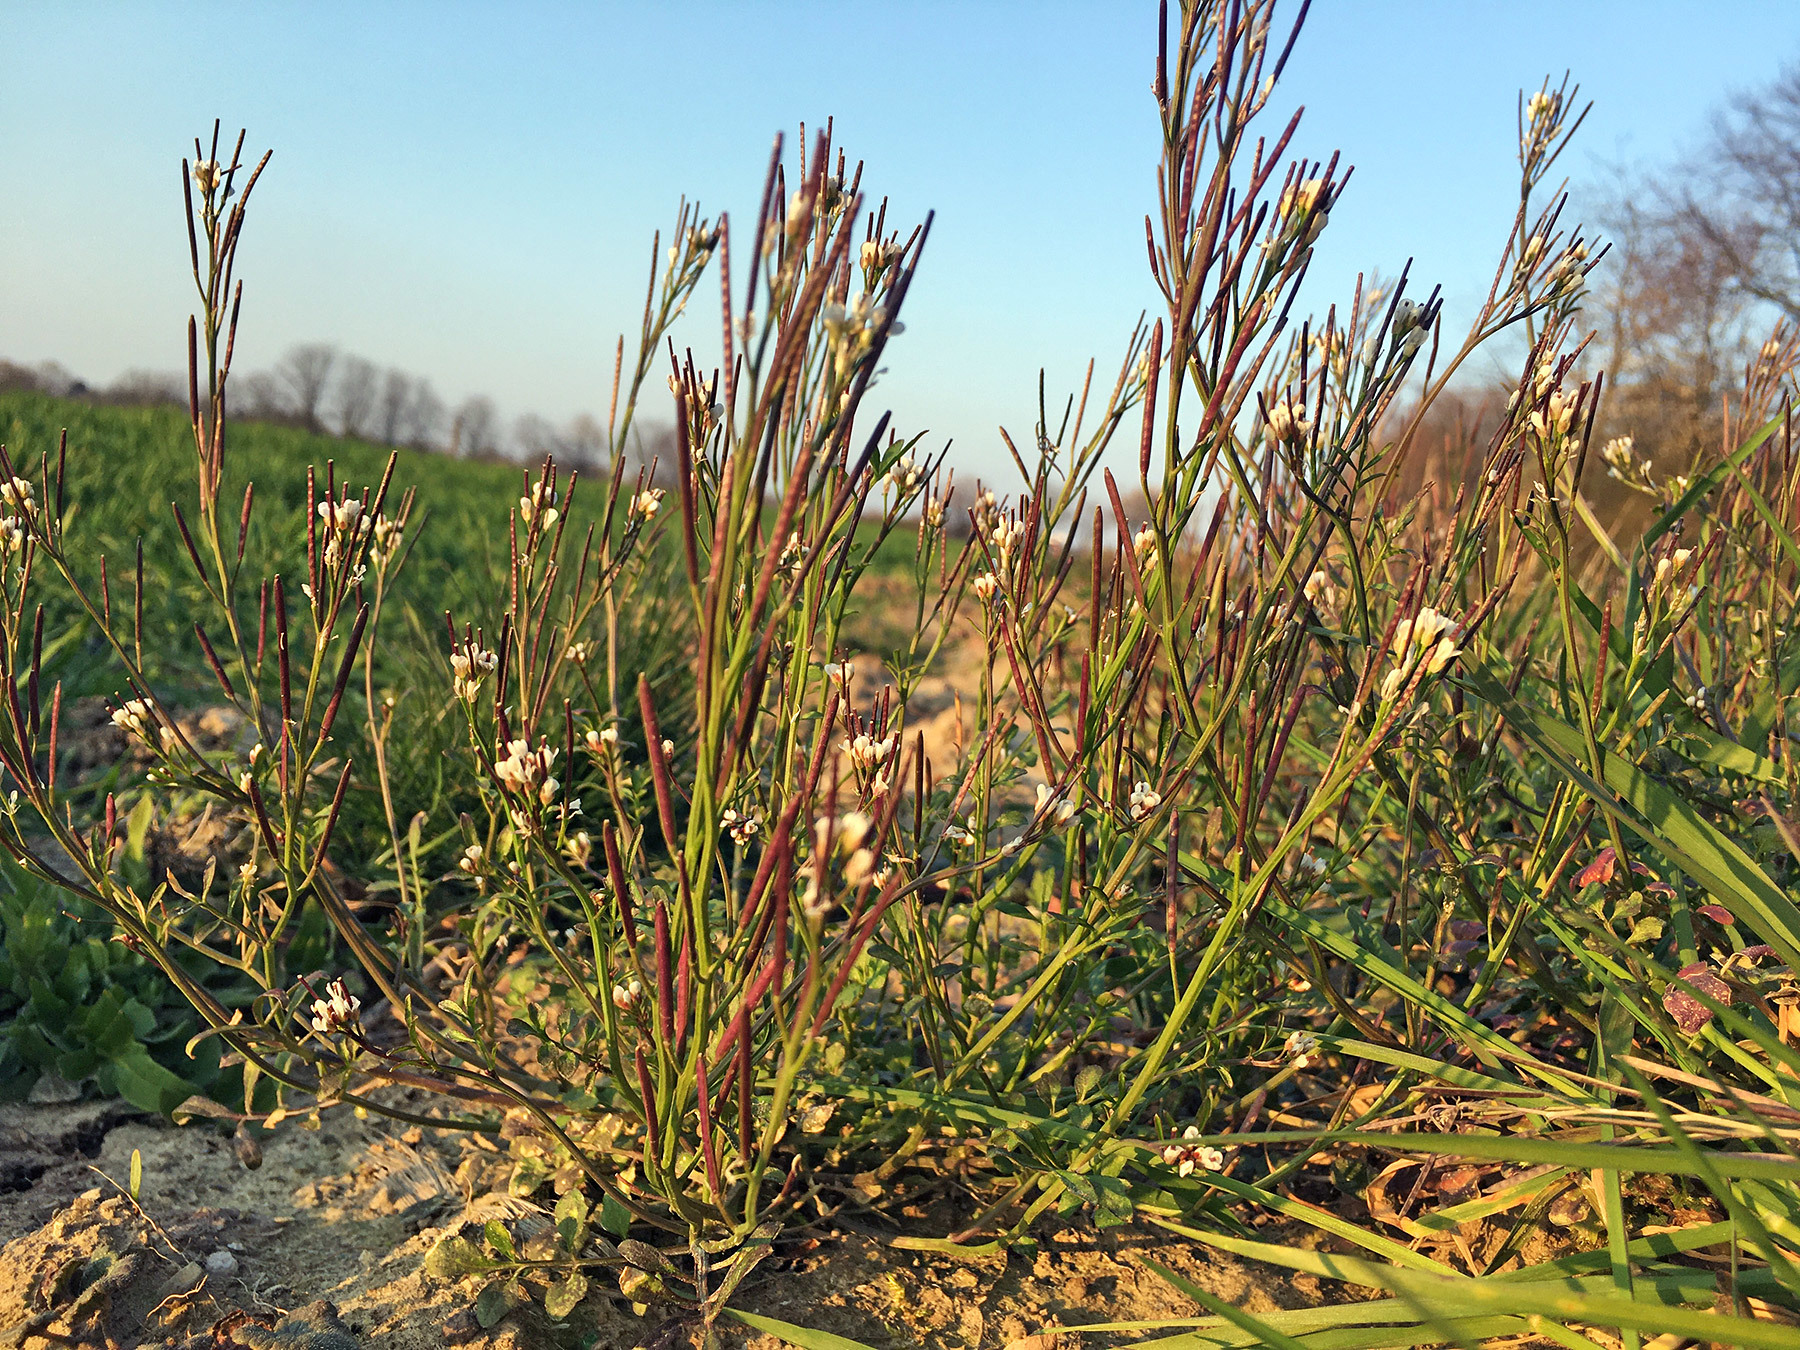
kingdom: Plantae
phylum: Tracheophyta
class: Magnoliopsida
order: Brassicales
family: Brassicaceae
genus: Cardamine
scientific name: Cardamine hirsuta
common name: Hairy bittercress
